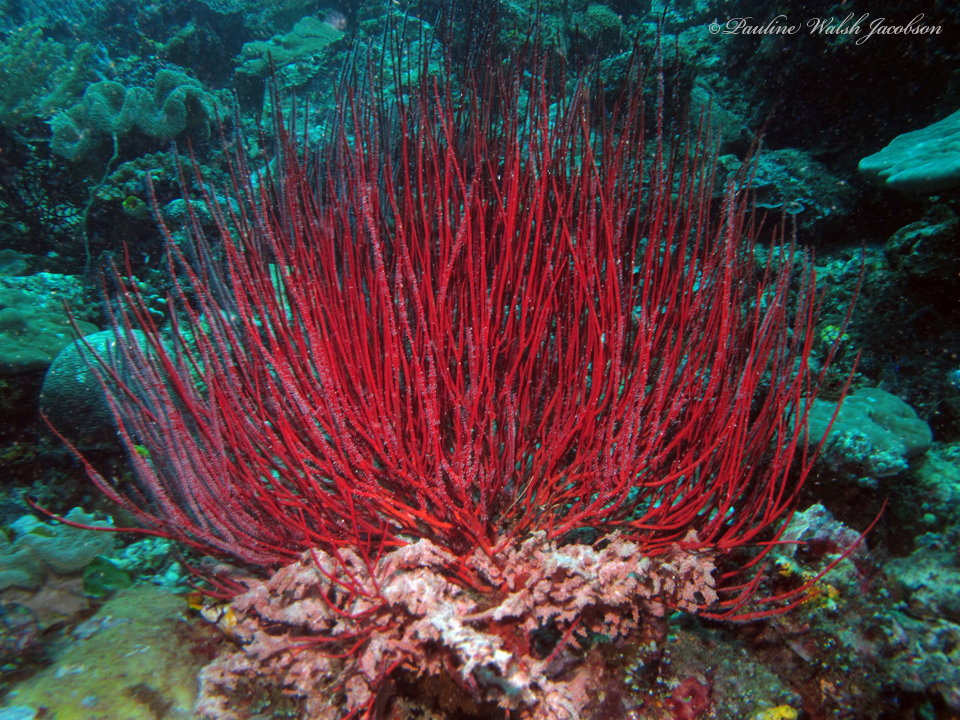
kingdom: Animalia
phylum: Cnidaria
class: Anthozoa
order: Scleralcyonacea
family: Ellisellidae
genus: Ellisella
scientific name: Ellisella ceratophyta
